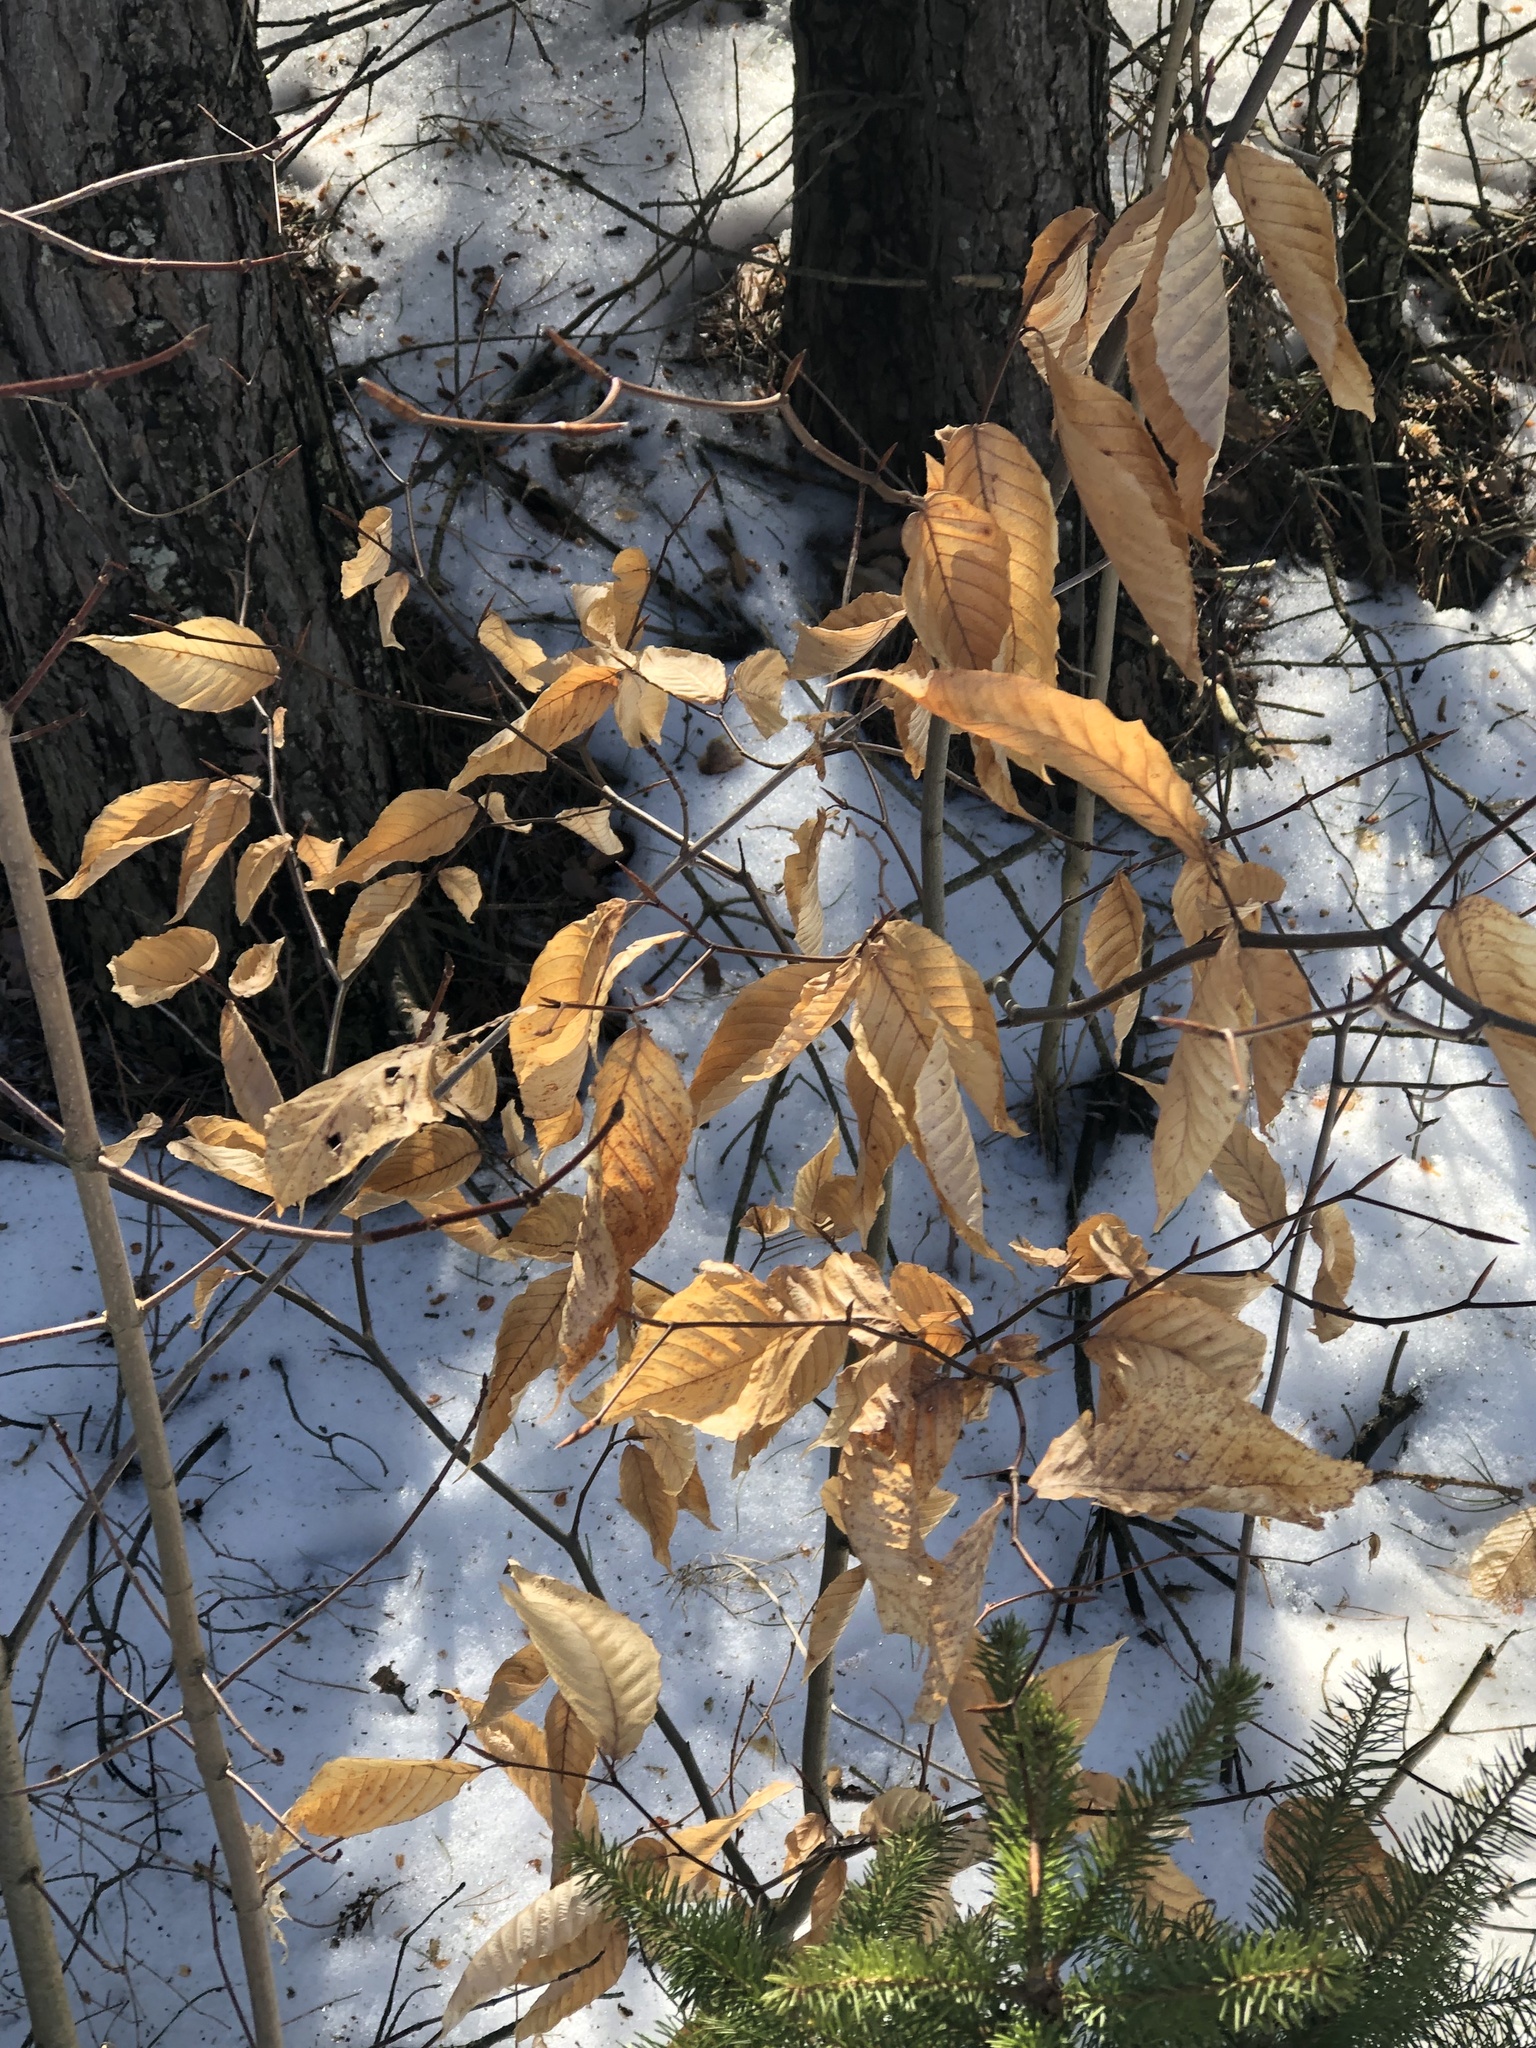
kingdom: Plantae
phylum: Tracheophyta
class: Magnoliopsida
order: Fagales
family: Fagaceae
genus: Fagus
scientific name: Fagus grandifolia
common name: American beech
